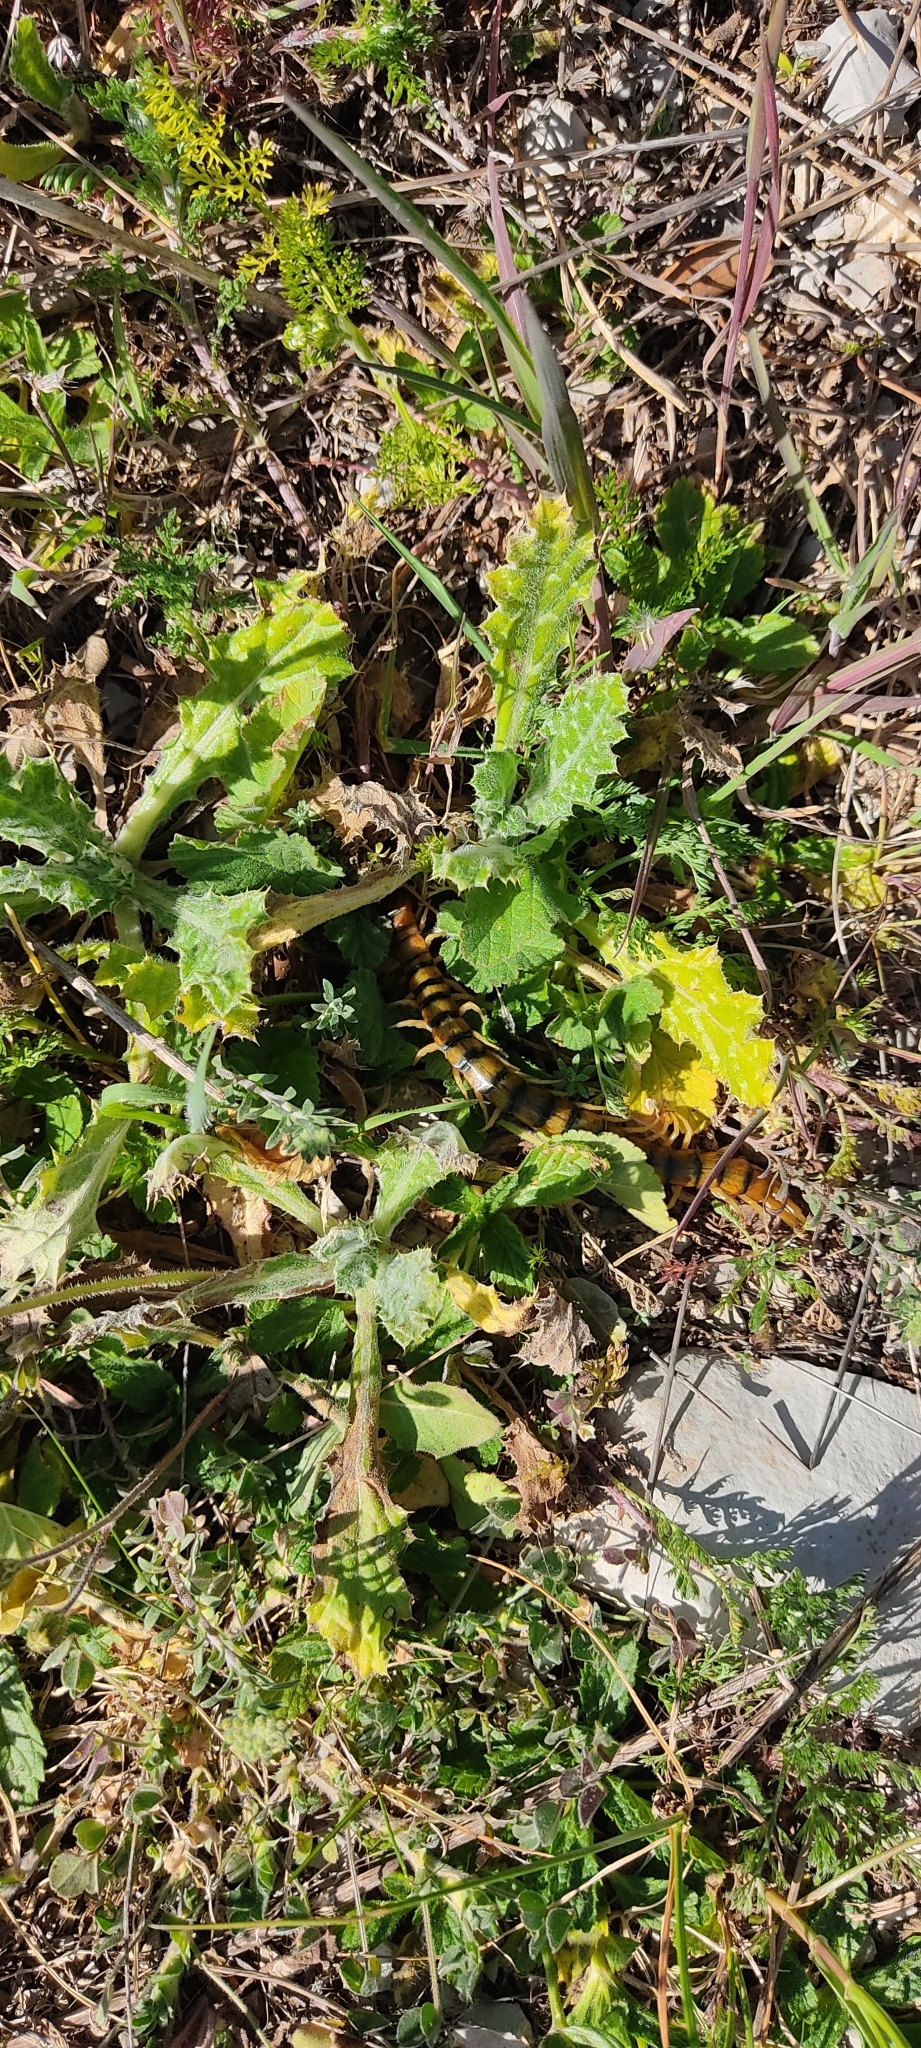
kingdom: Animalia
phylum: Arthropoda
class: Chilopoda
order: Scolopendromorpha
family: Scolopendridae
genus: Scolopendra
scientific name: Scolopendra cingulata
